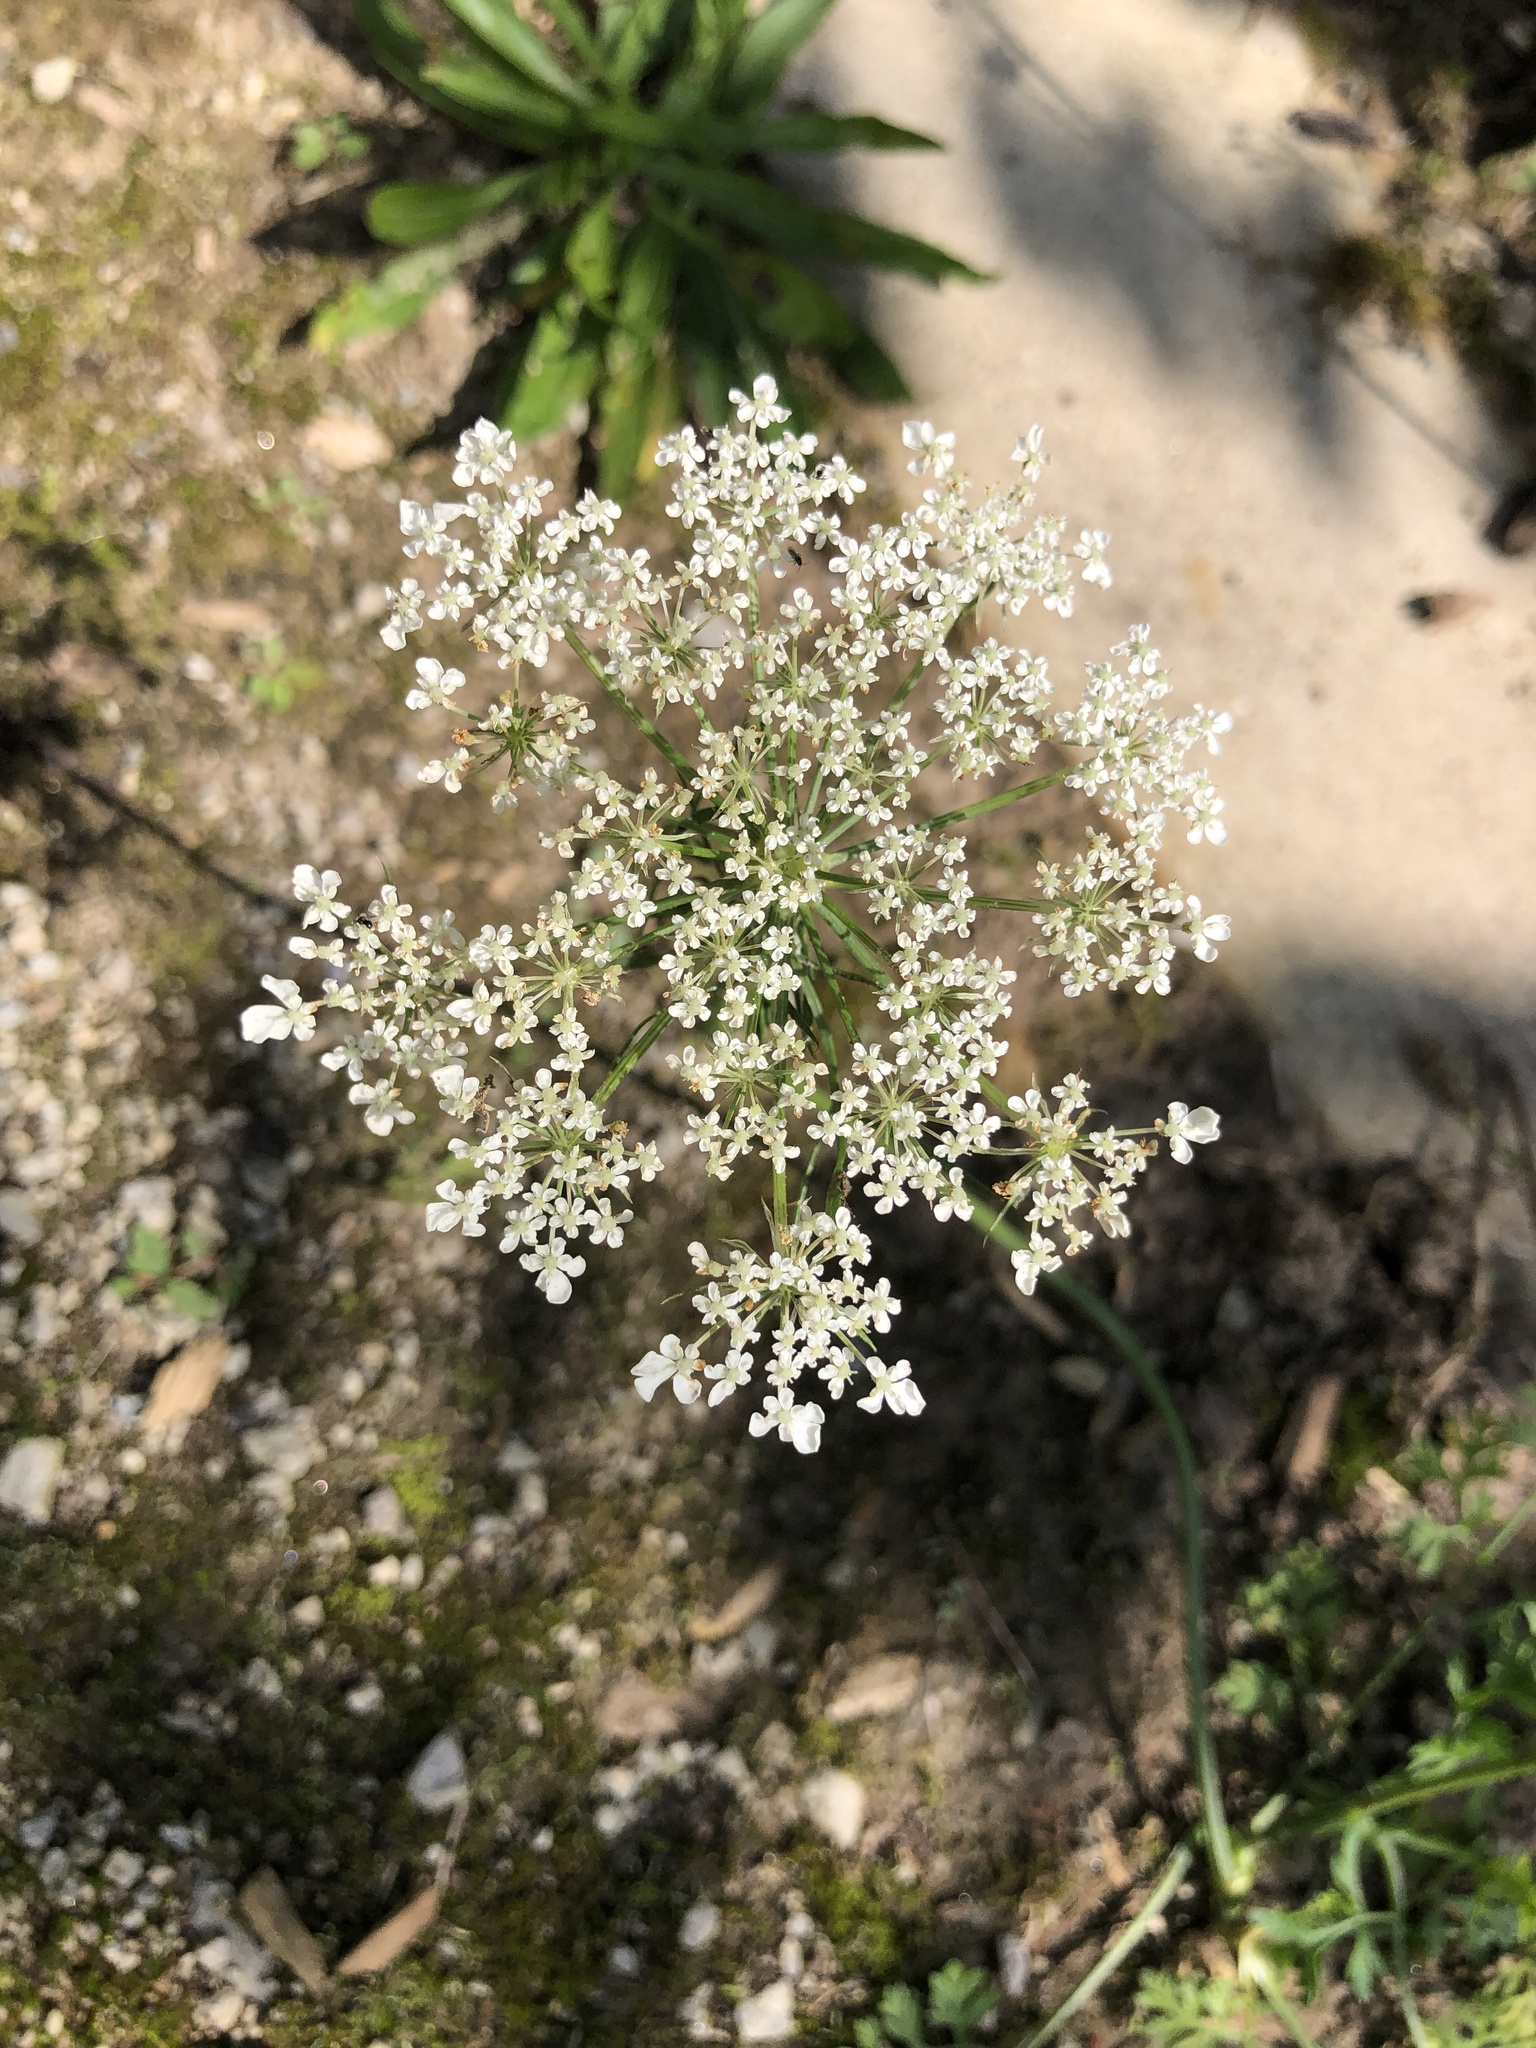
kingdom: Plantae
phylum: Tracheophyta
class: Magnoliopsida
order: Apiales
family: Apiaceae
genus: Daucus
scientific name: Daucus carota
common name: Wild carrot
